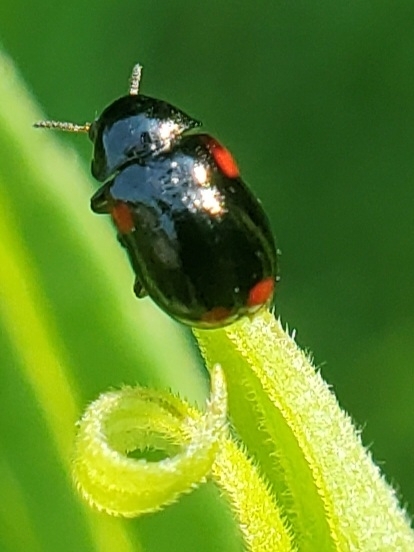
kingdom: Animalia
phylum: Arthropoda
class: Insecta
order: Coleoptera
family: Chrysomelidae
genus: Babia
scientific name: Babia quadriguttata
